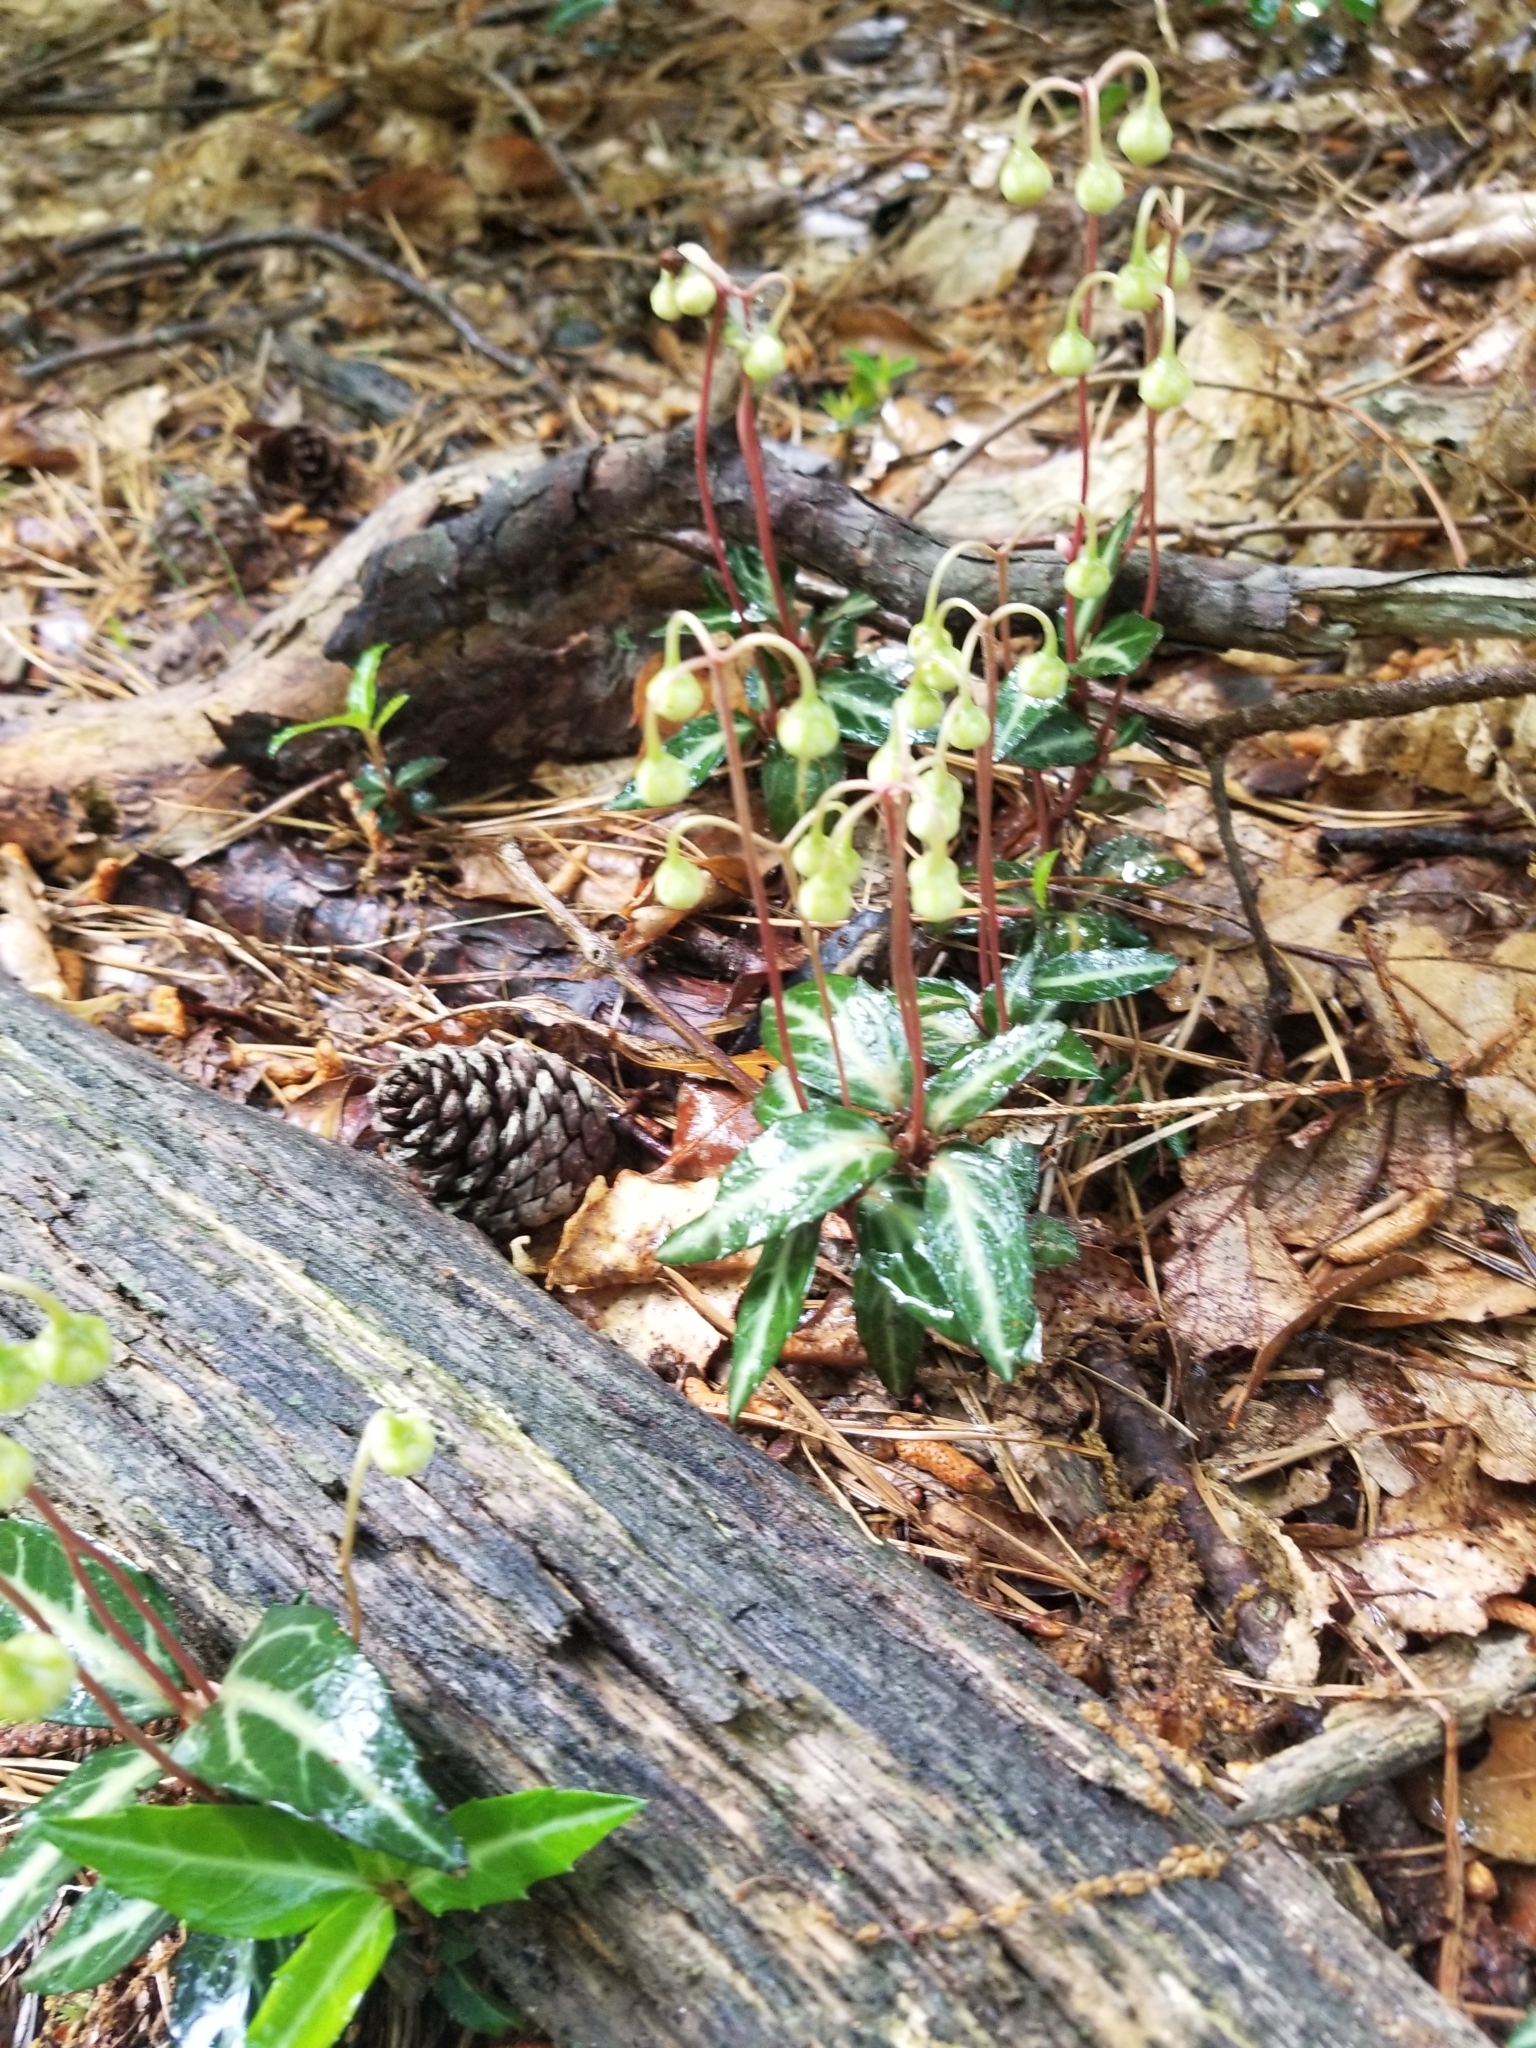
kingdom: Plantae
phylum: Tracheophyta
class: Magnoliopsida
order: Ericales
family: Ericaceae
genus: Chimaphila
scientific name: Chimaphila maculata
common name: Spotted pipsissewa
